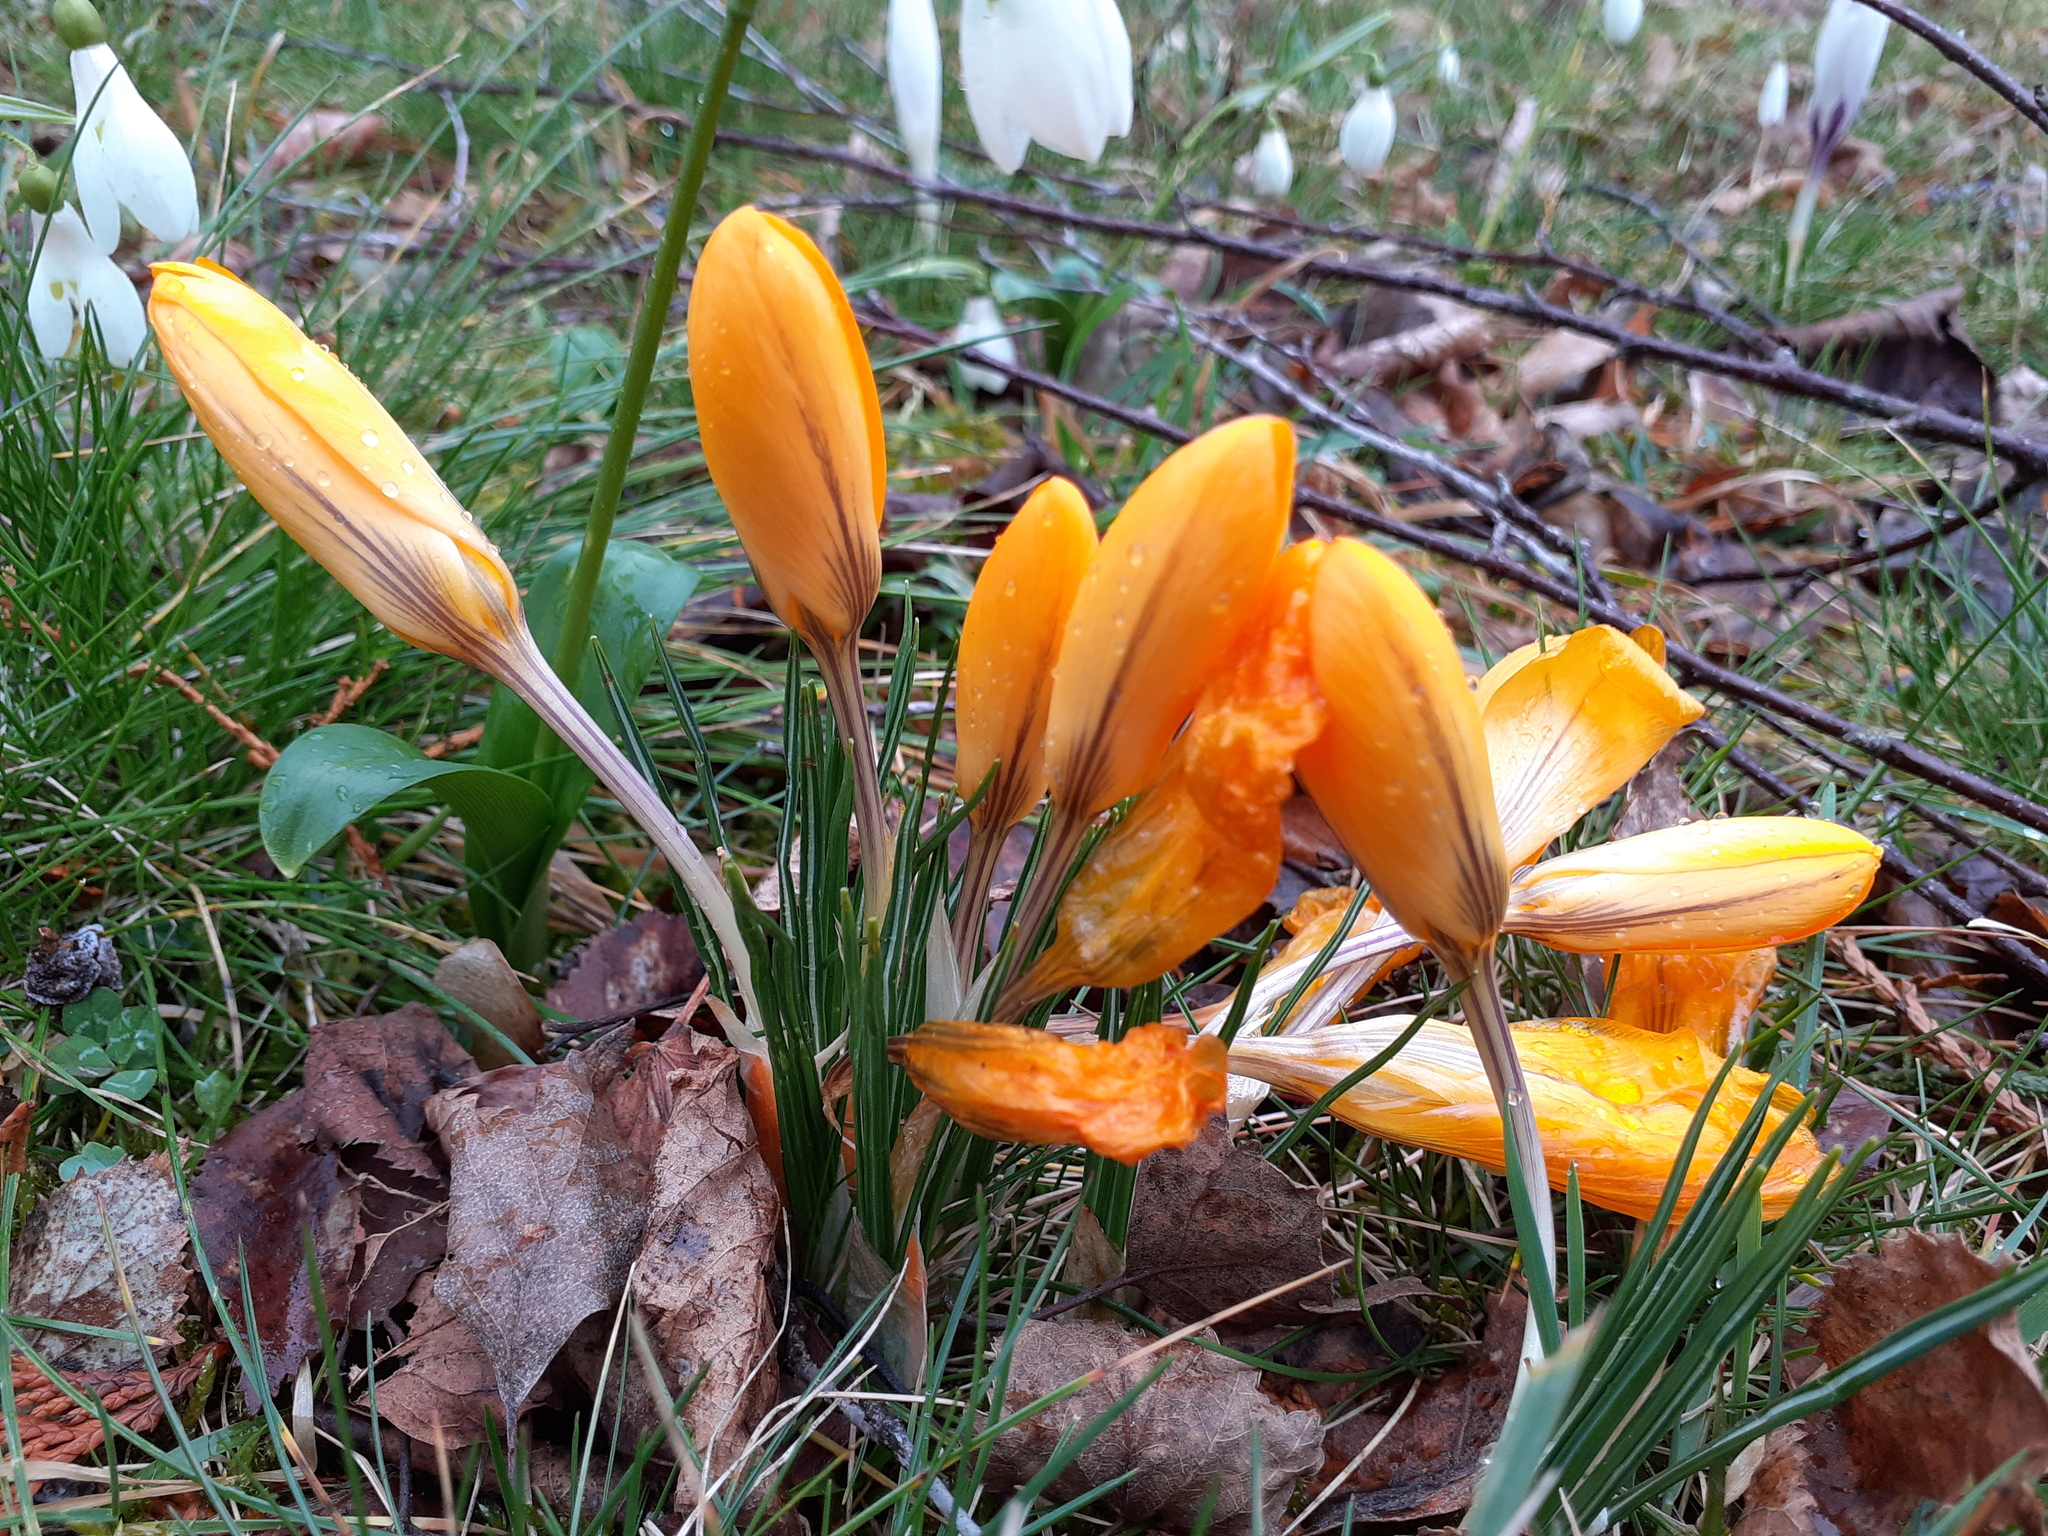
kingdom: Plantae
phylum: Tracheophyta
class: Liliopsida
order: Asparagales
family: Iridaceae
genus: Crocus
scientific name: Crocus luteus
